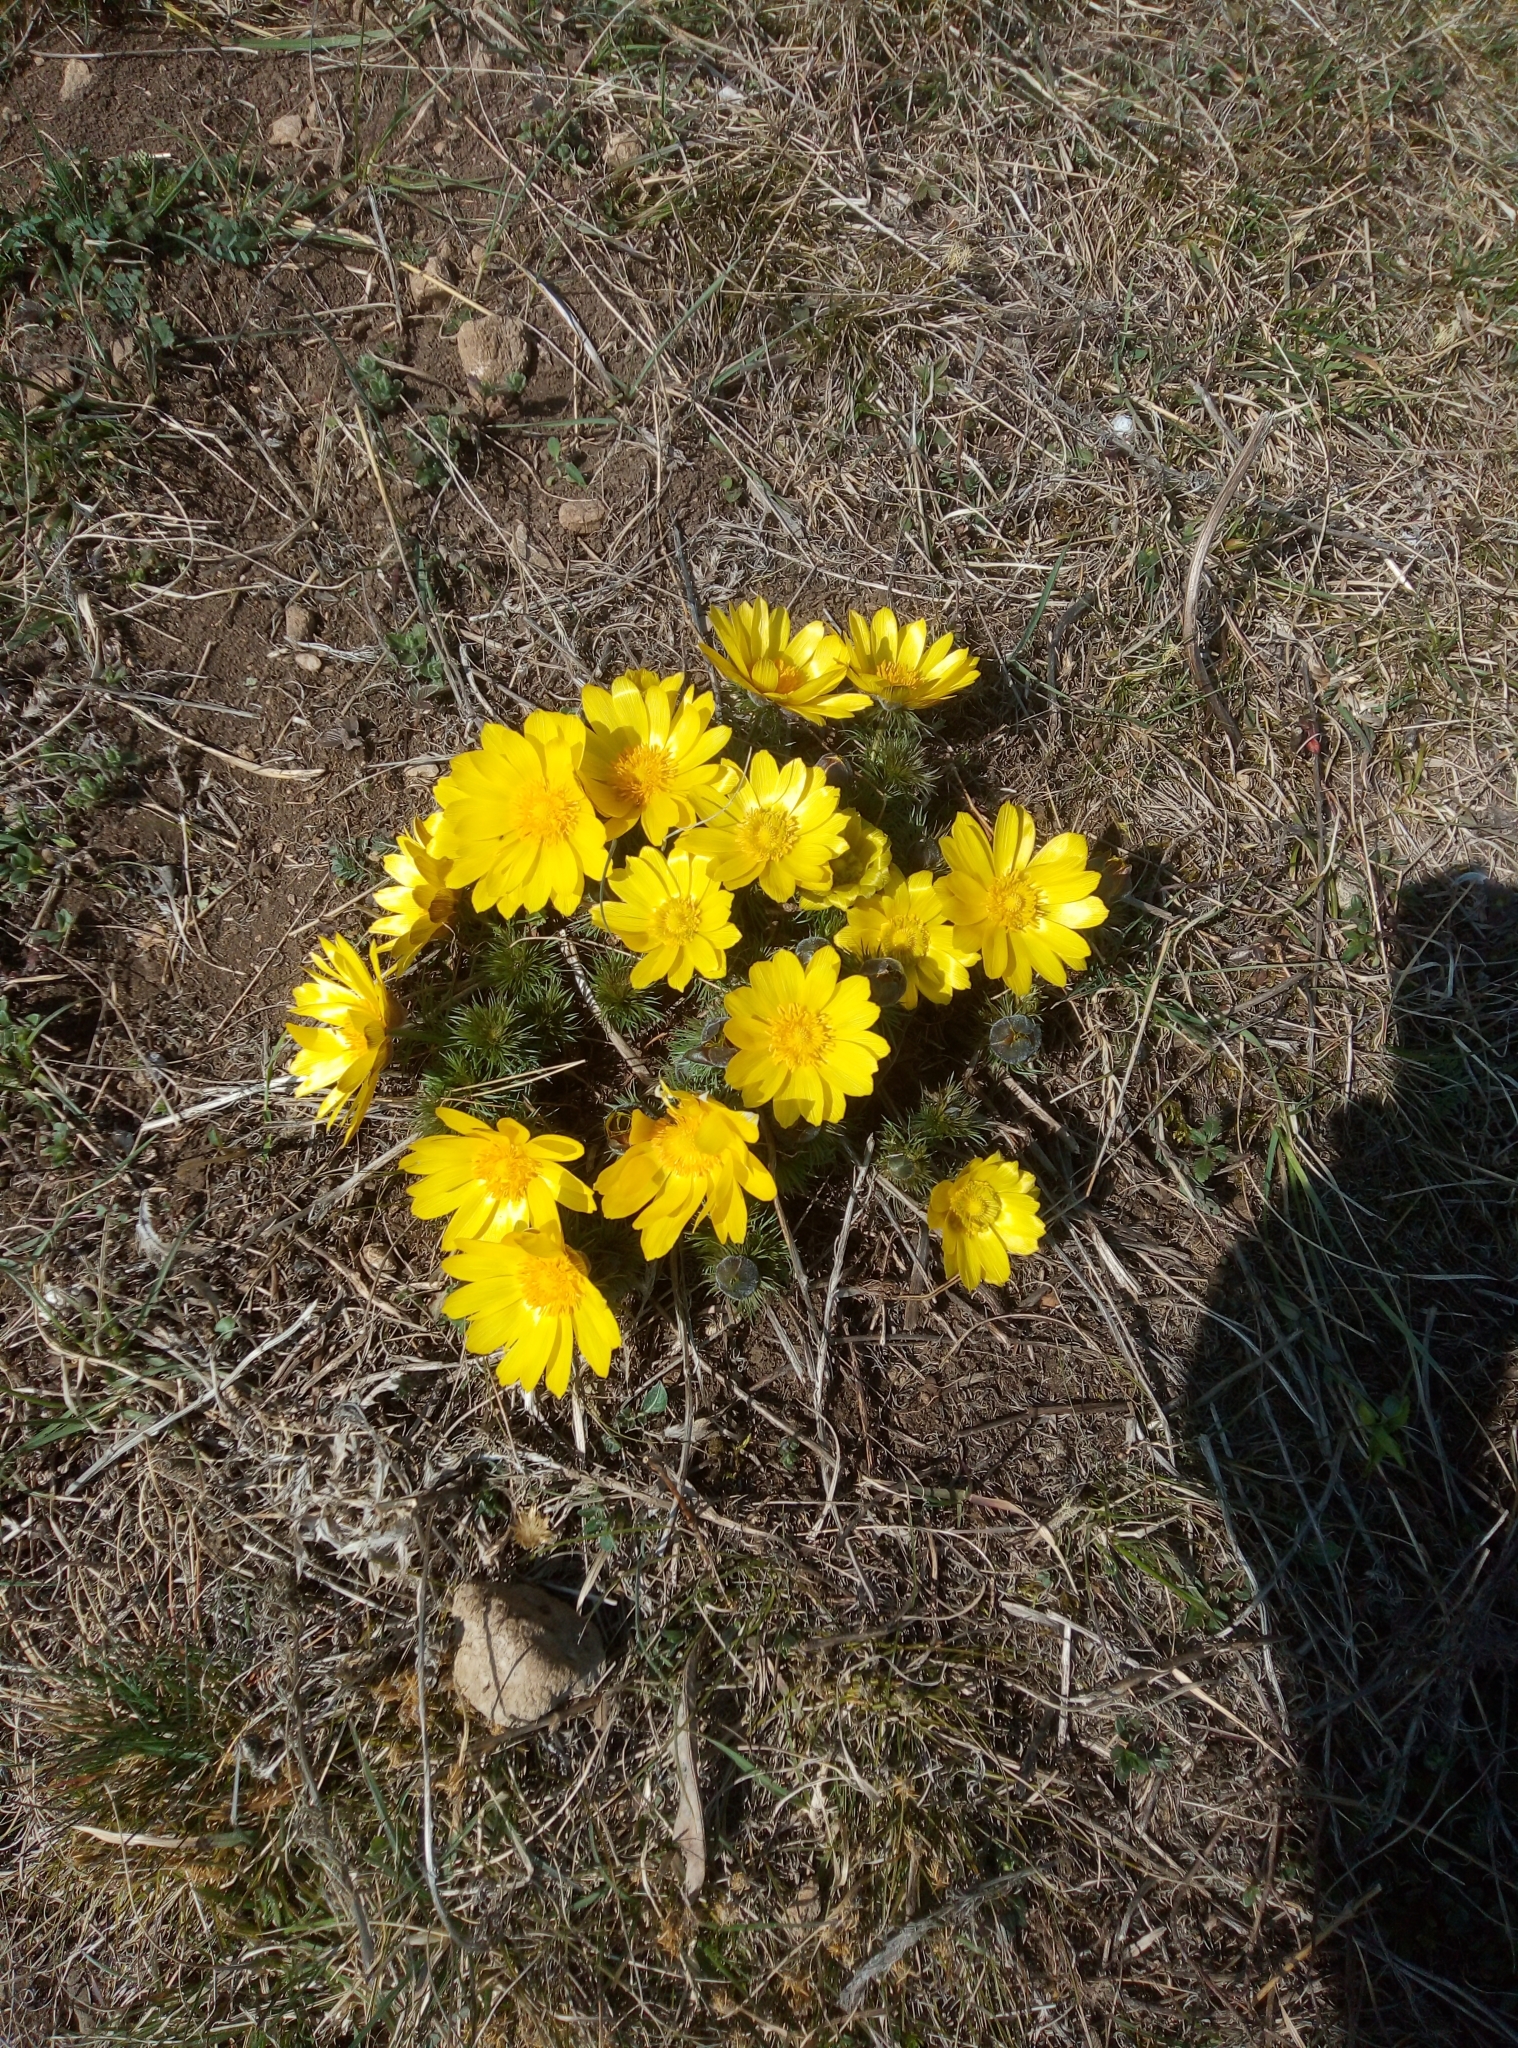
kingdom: Plantae
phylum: Tracheophyta
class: Magnoliopsida
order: Ranunculales
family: Ranunculaceae
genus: Adonis
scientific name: Adonis vernalis
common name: Yellow pheasants-eye
